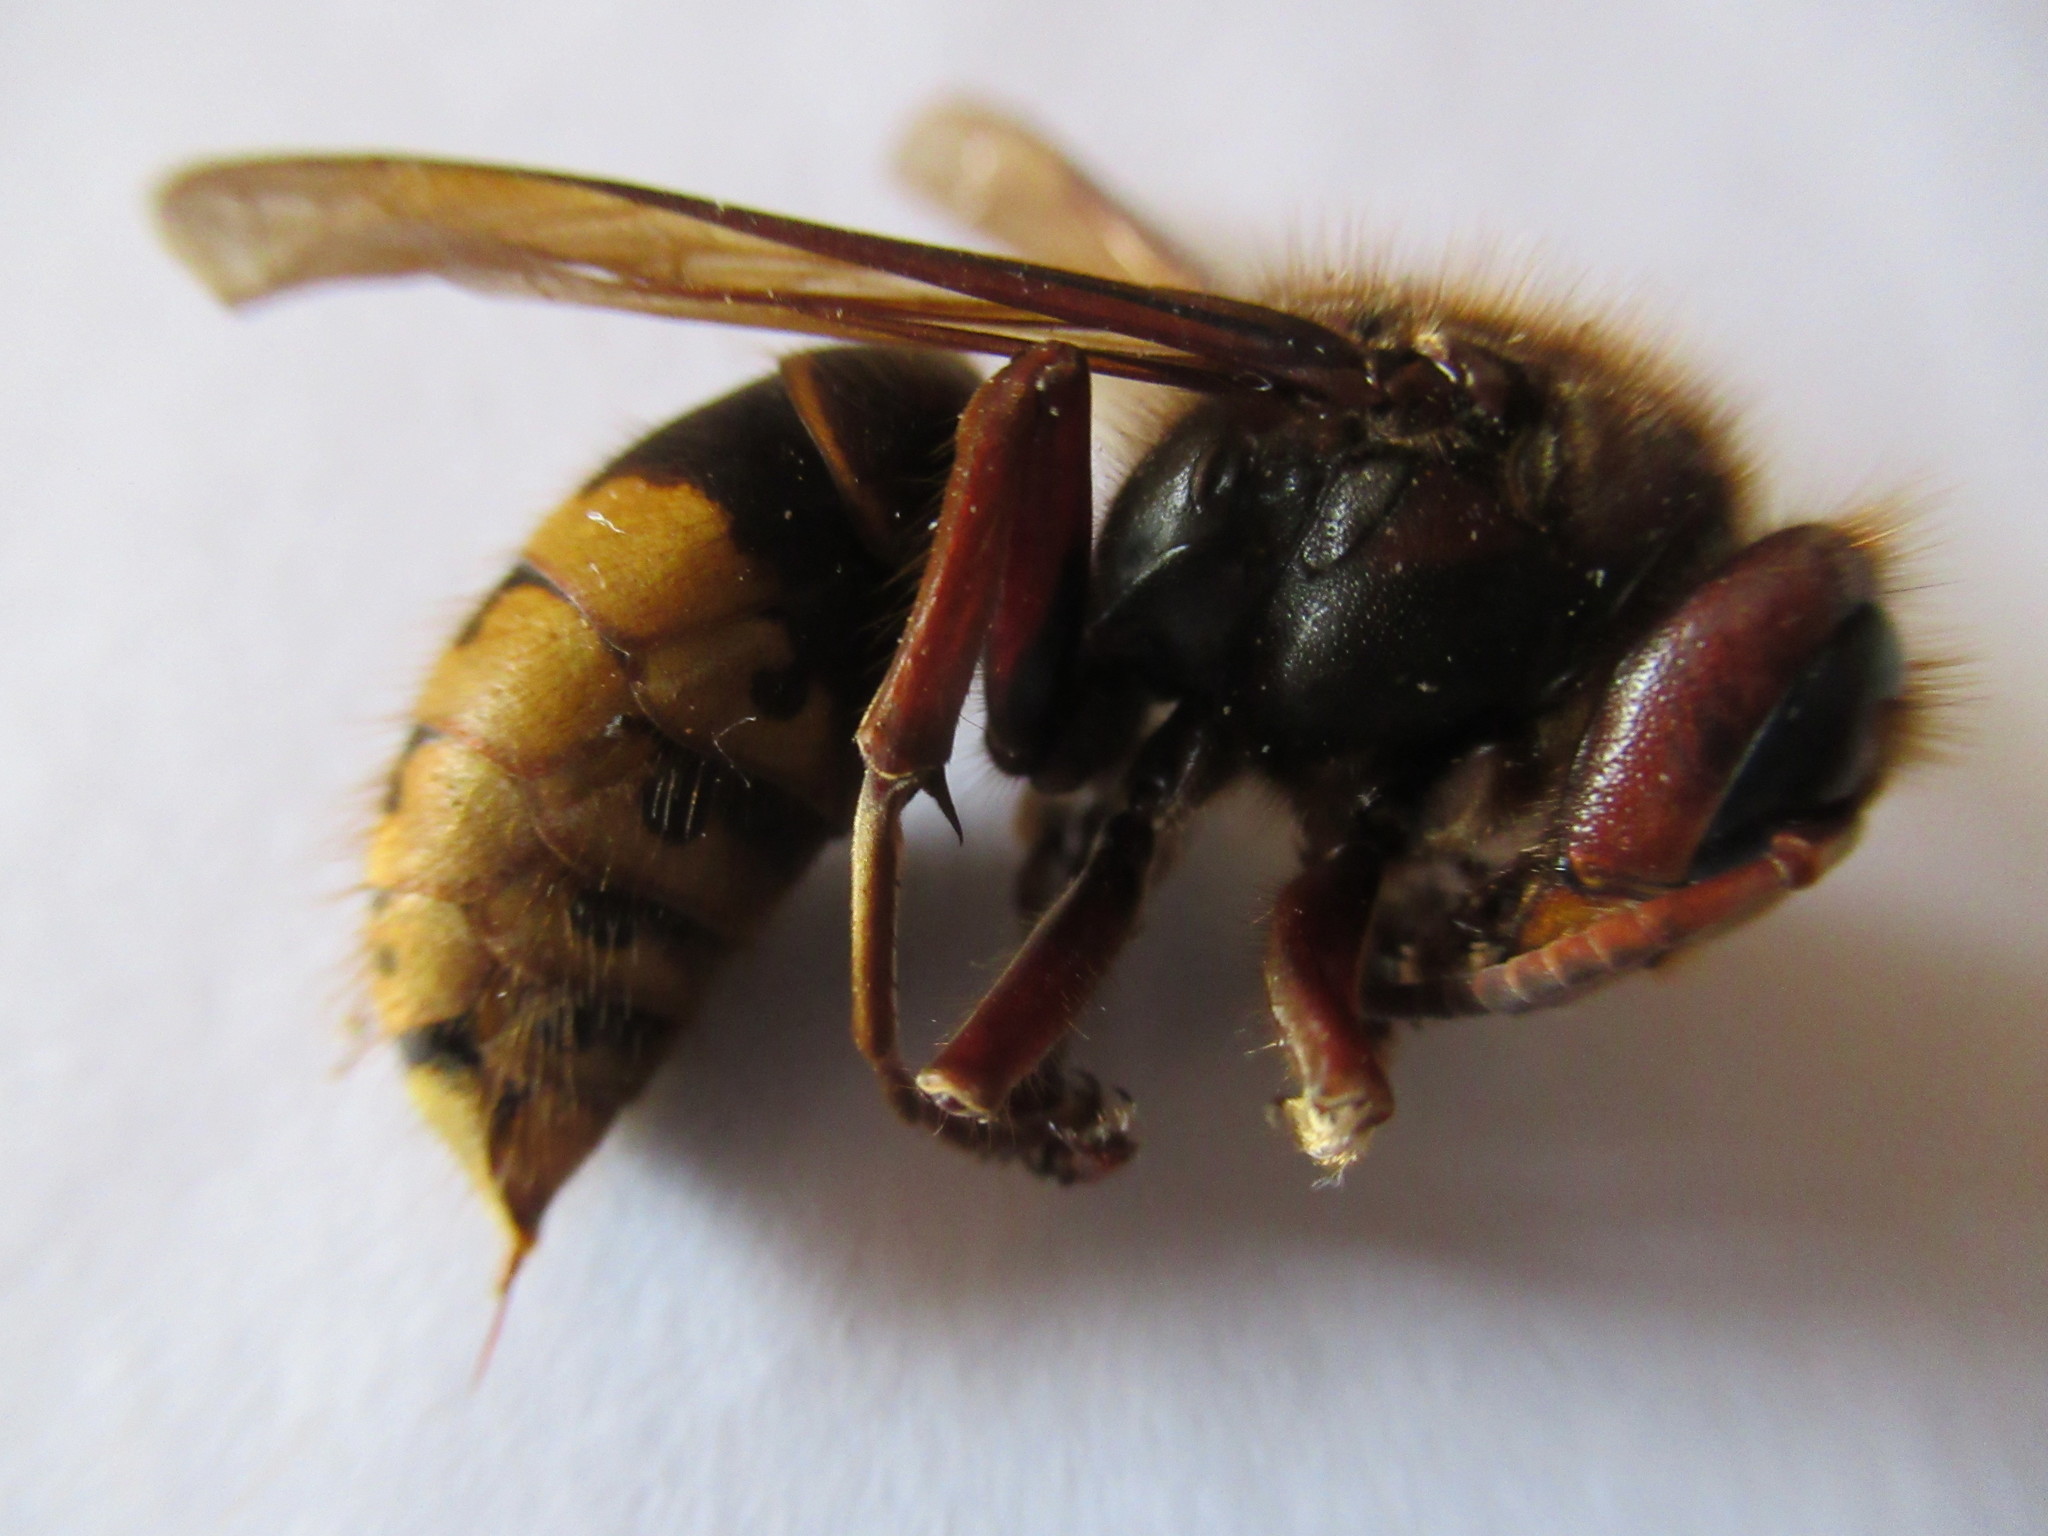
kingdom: Animalia
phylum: Arthropoda
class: Insecta
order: Hymenoptera
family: Vespidae
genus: Vespa
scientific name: Vespa crabro
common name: Hornet
